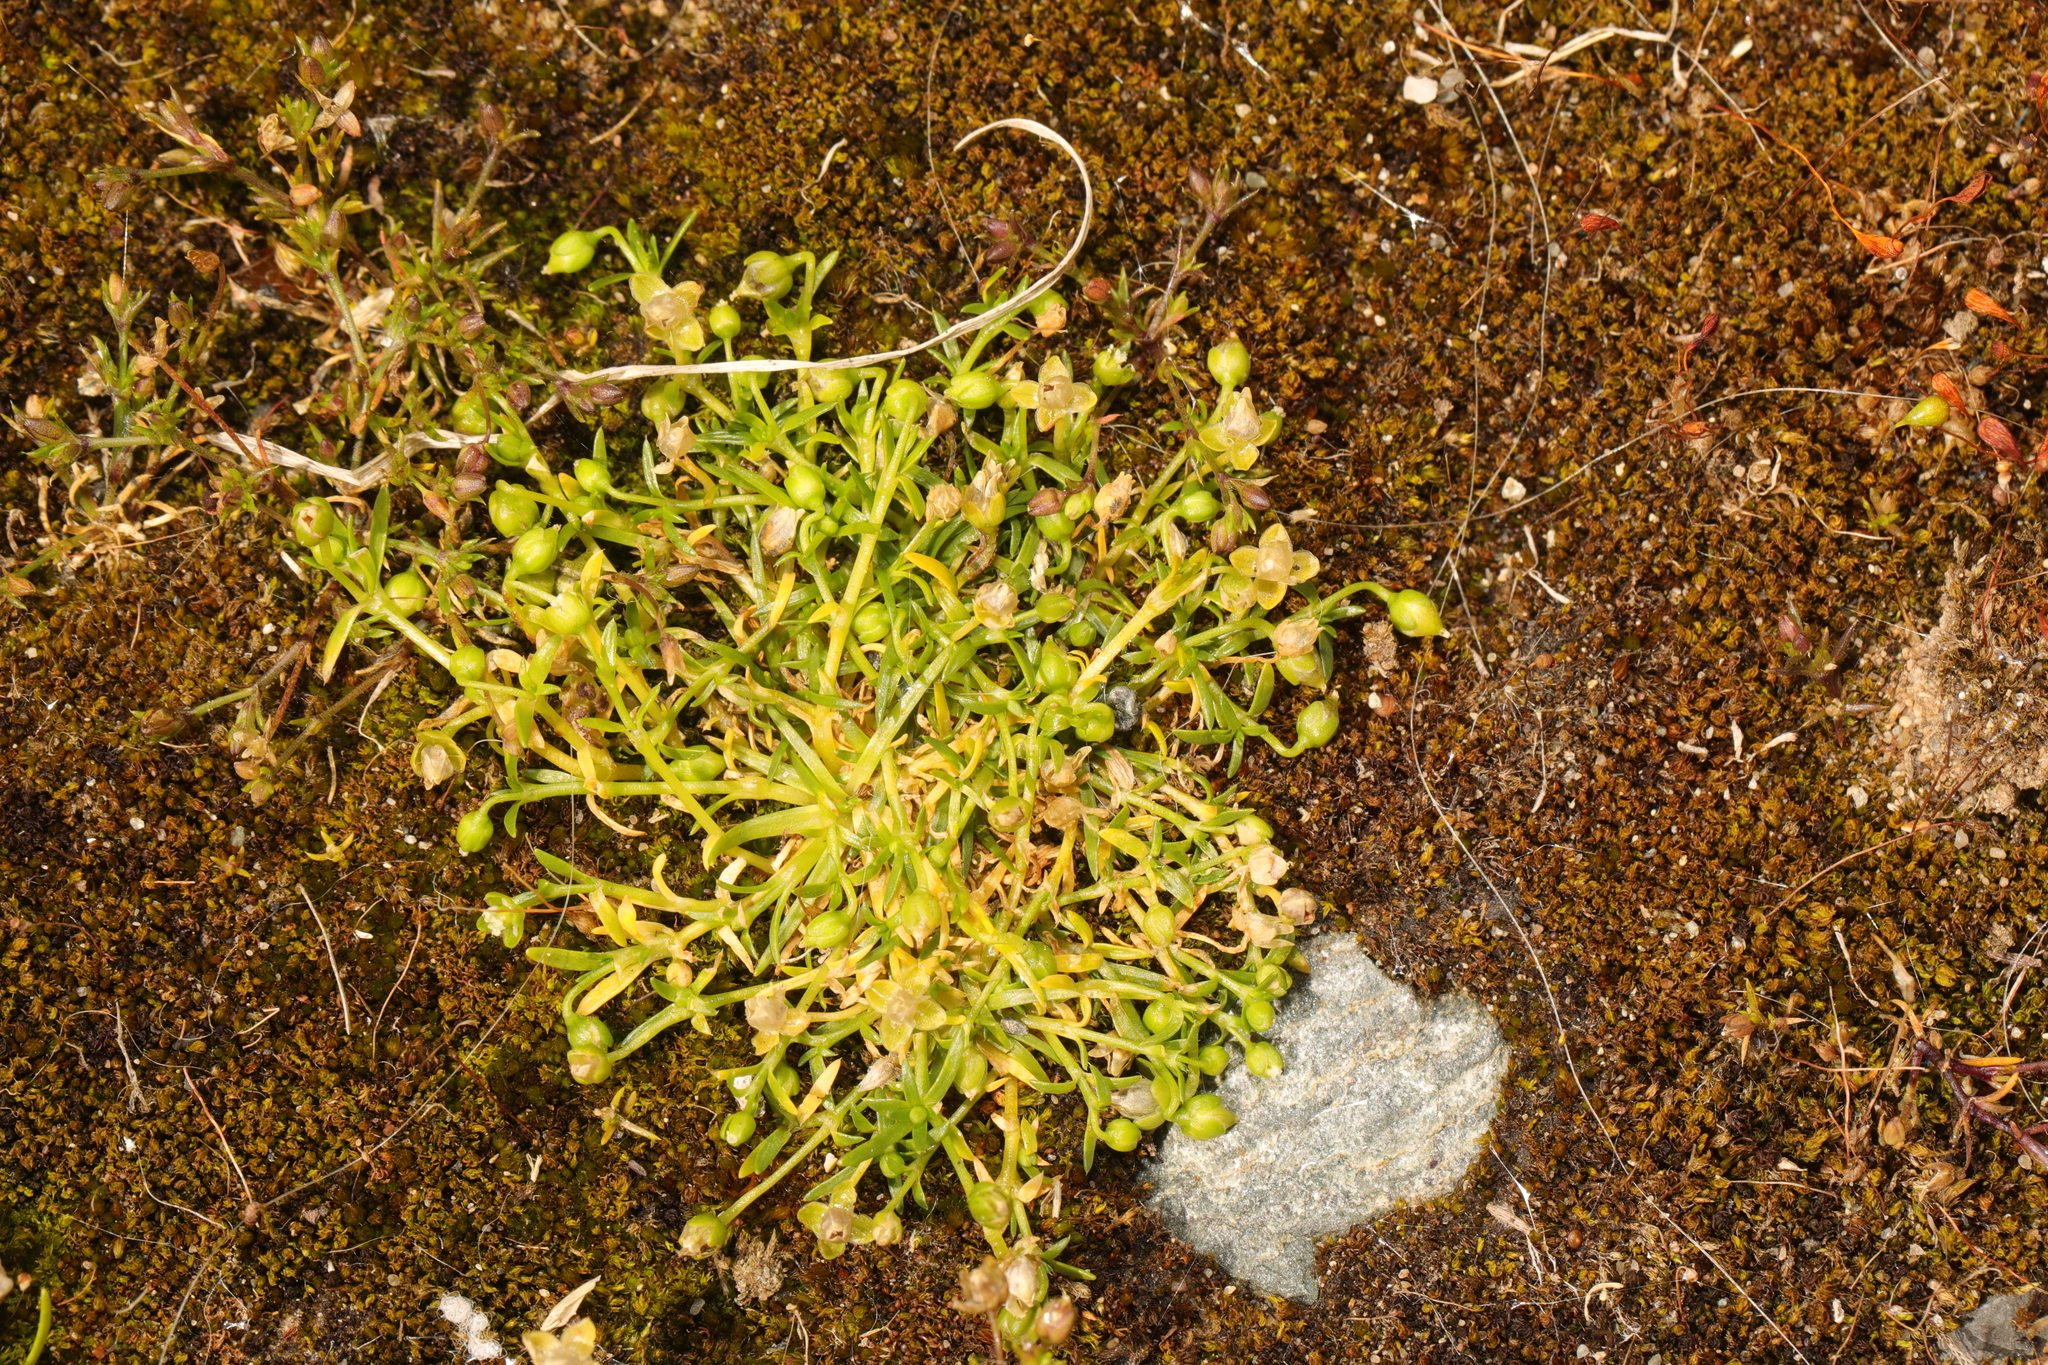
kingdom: Plantae
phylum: Tracheophyta
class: Magnoliopsida
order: Caryophyllales
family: Caryophyllaceae
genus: Sagina
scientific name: Sagina procumbens
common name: Procumbent pearlwort
